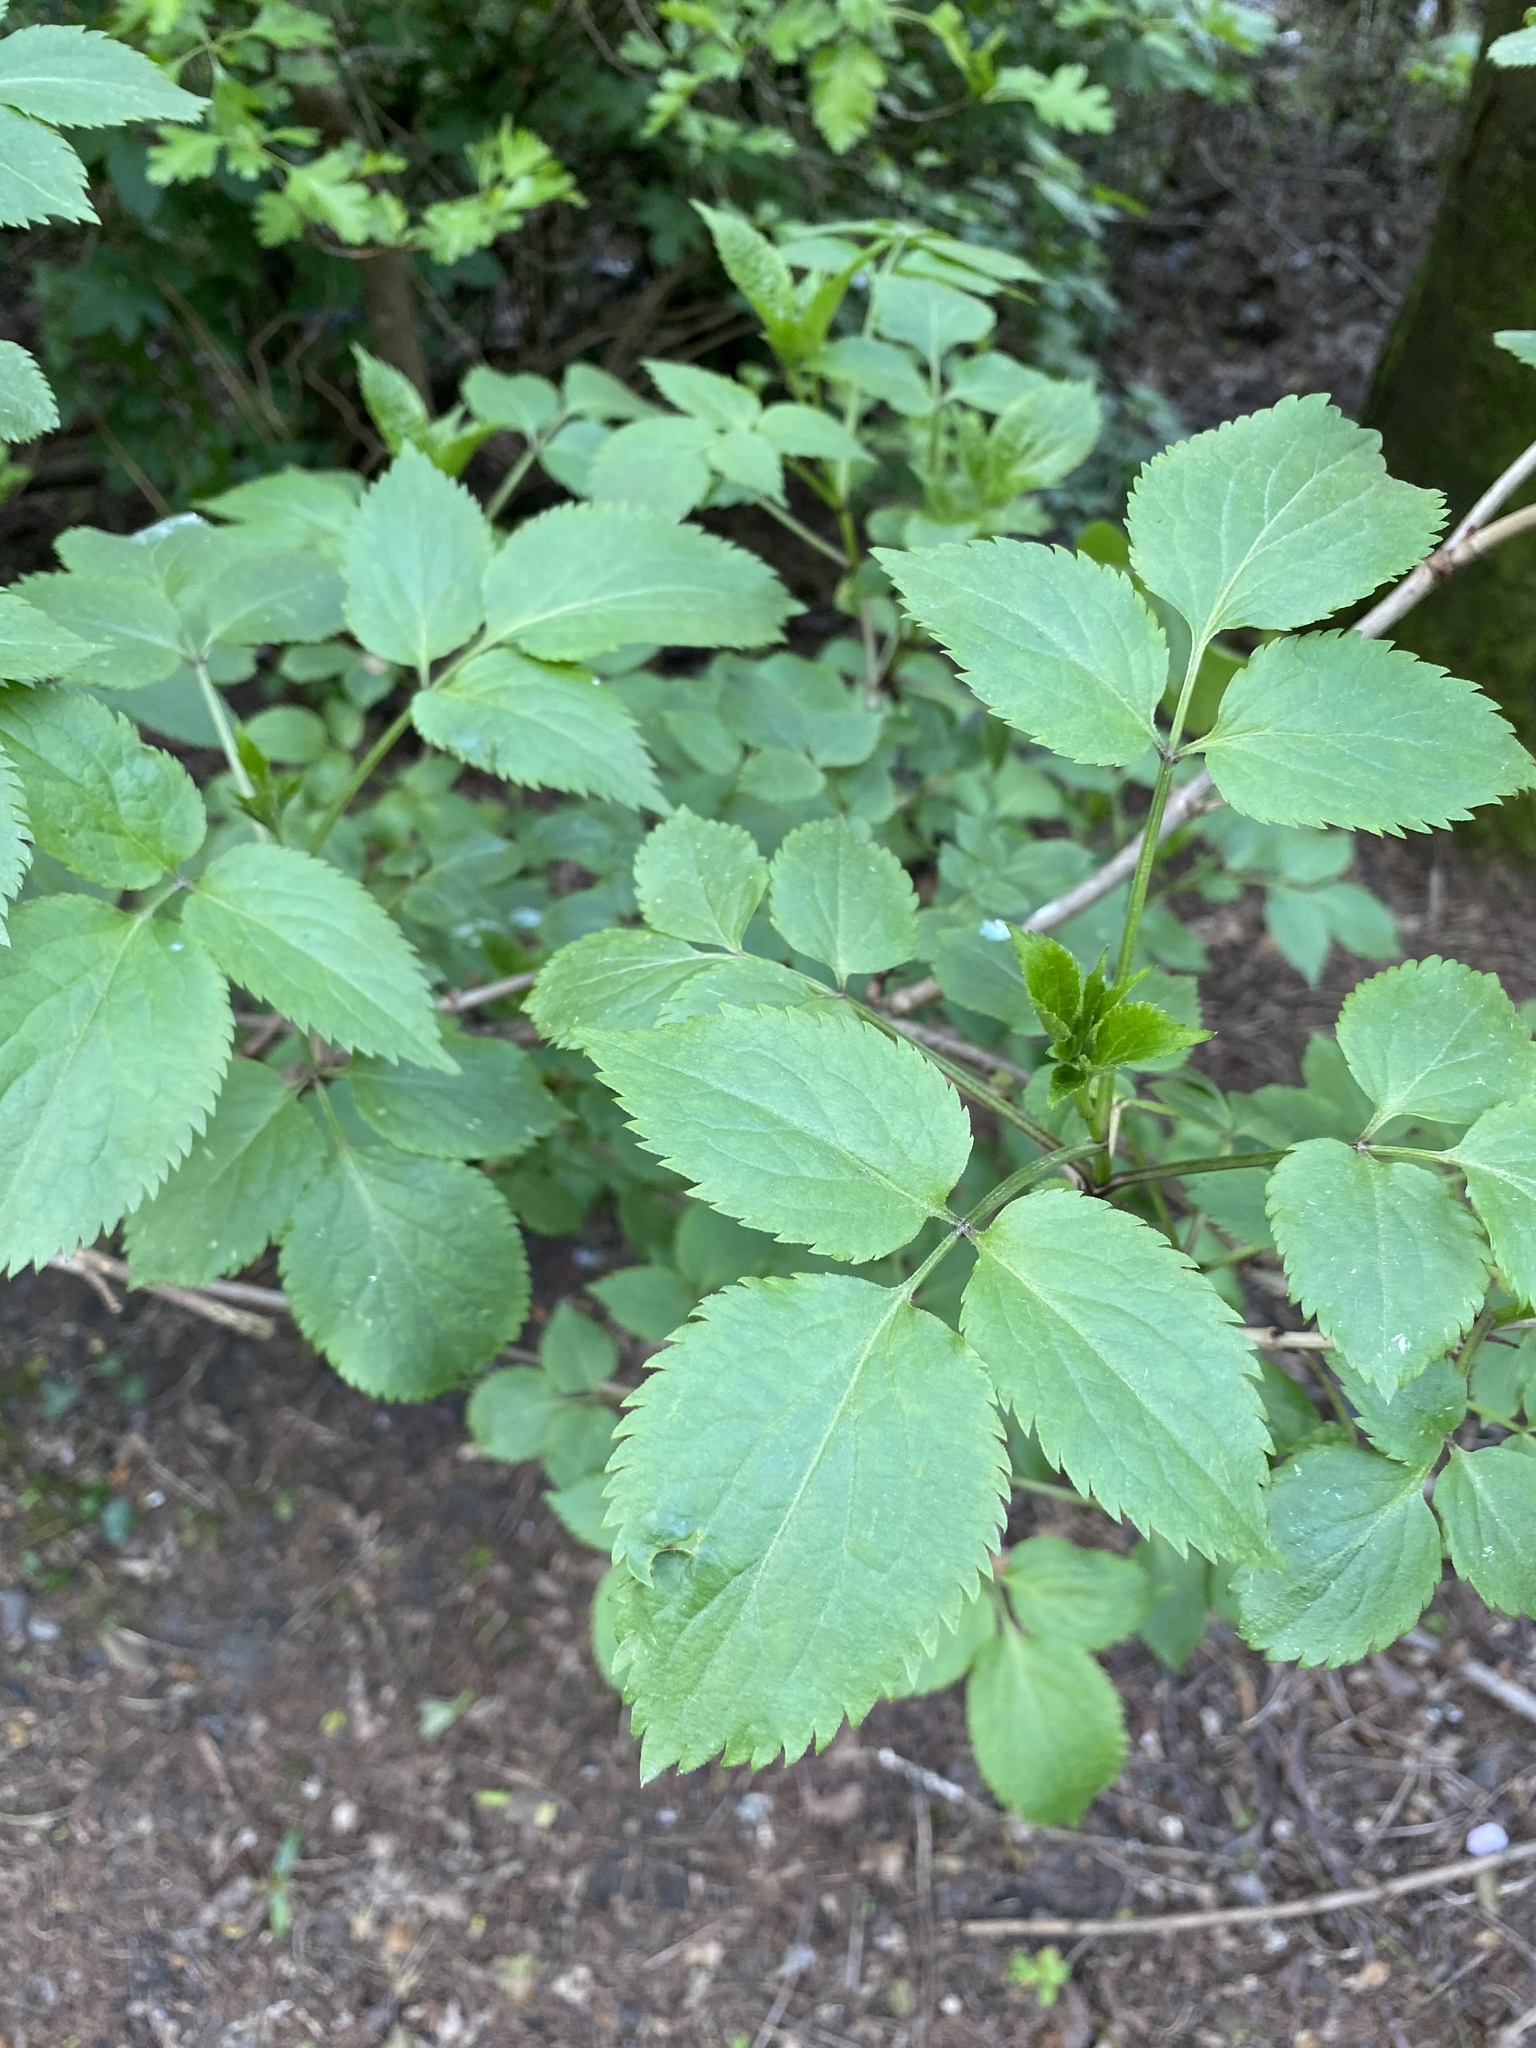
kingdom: Plantae
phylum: Tracheophyta
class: Magnoliopsida
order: Dipsacales
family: Viburnaceae
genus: Sambucus
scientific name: Sambucus nigra
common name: Elder
